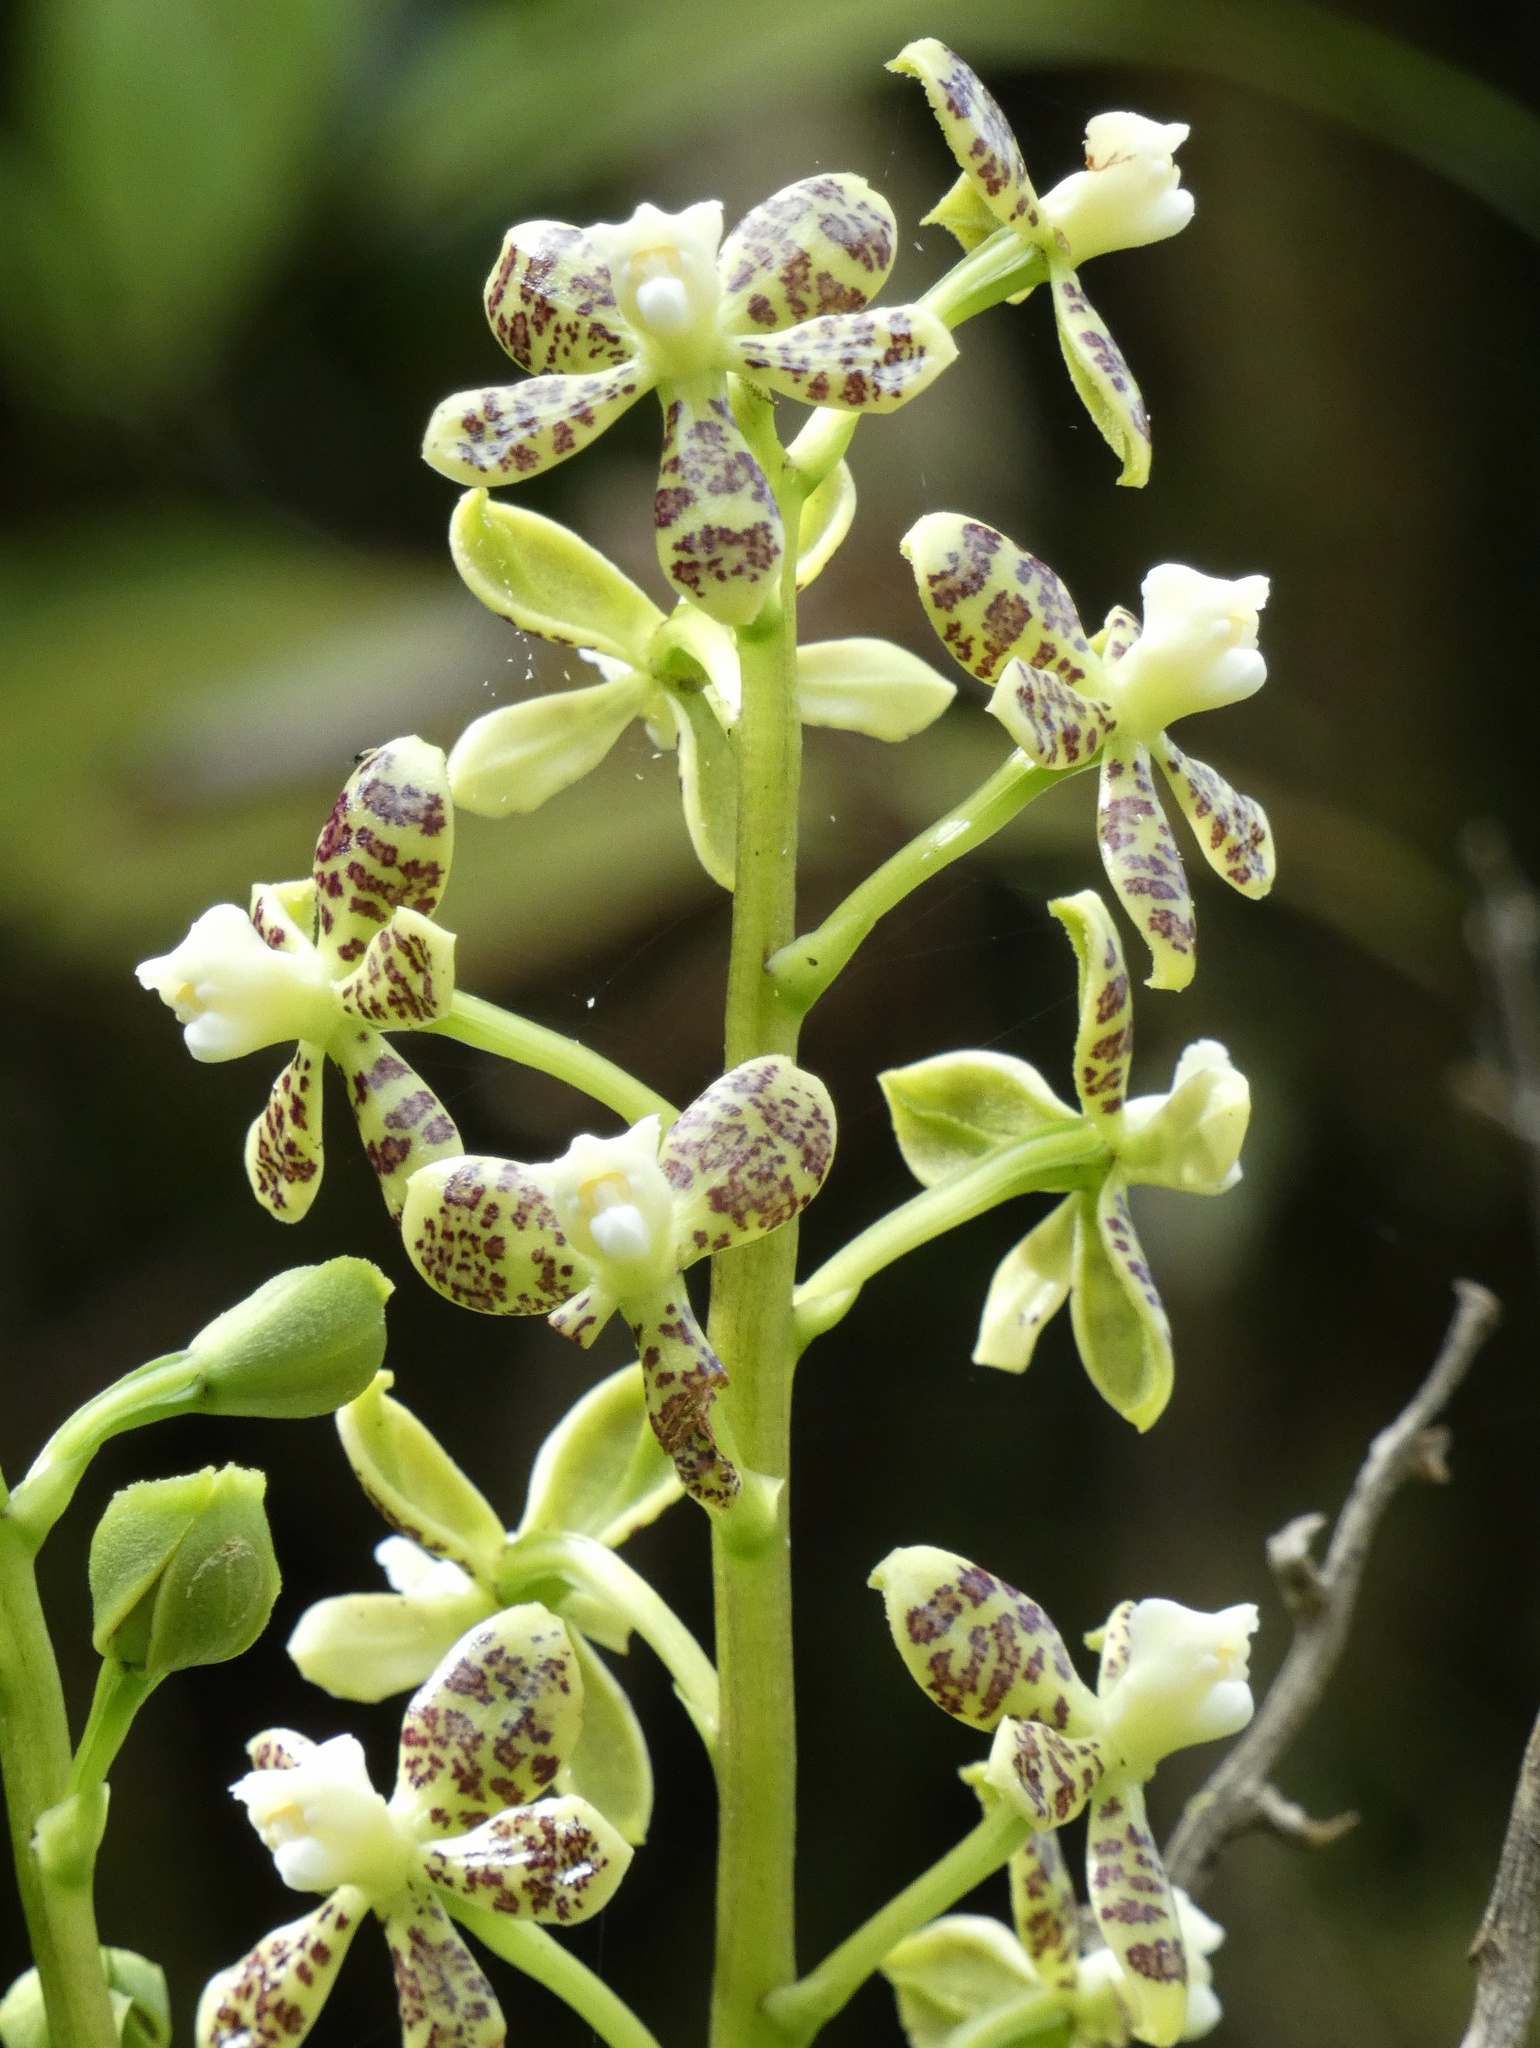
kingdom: Plantae
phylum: Tracheophyta
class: Liliopsida
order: Asparagales
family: Orchidaceae
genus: Prosthechea
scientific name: Prosthechea crassilabia
